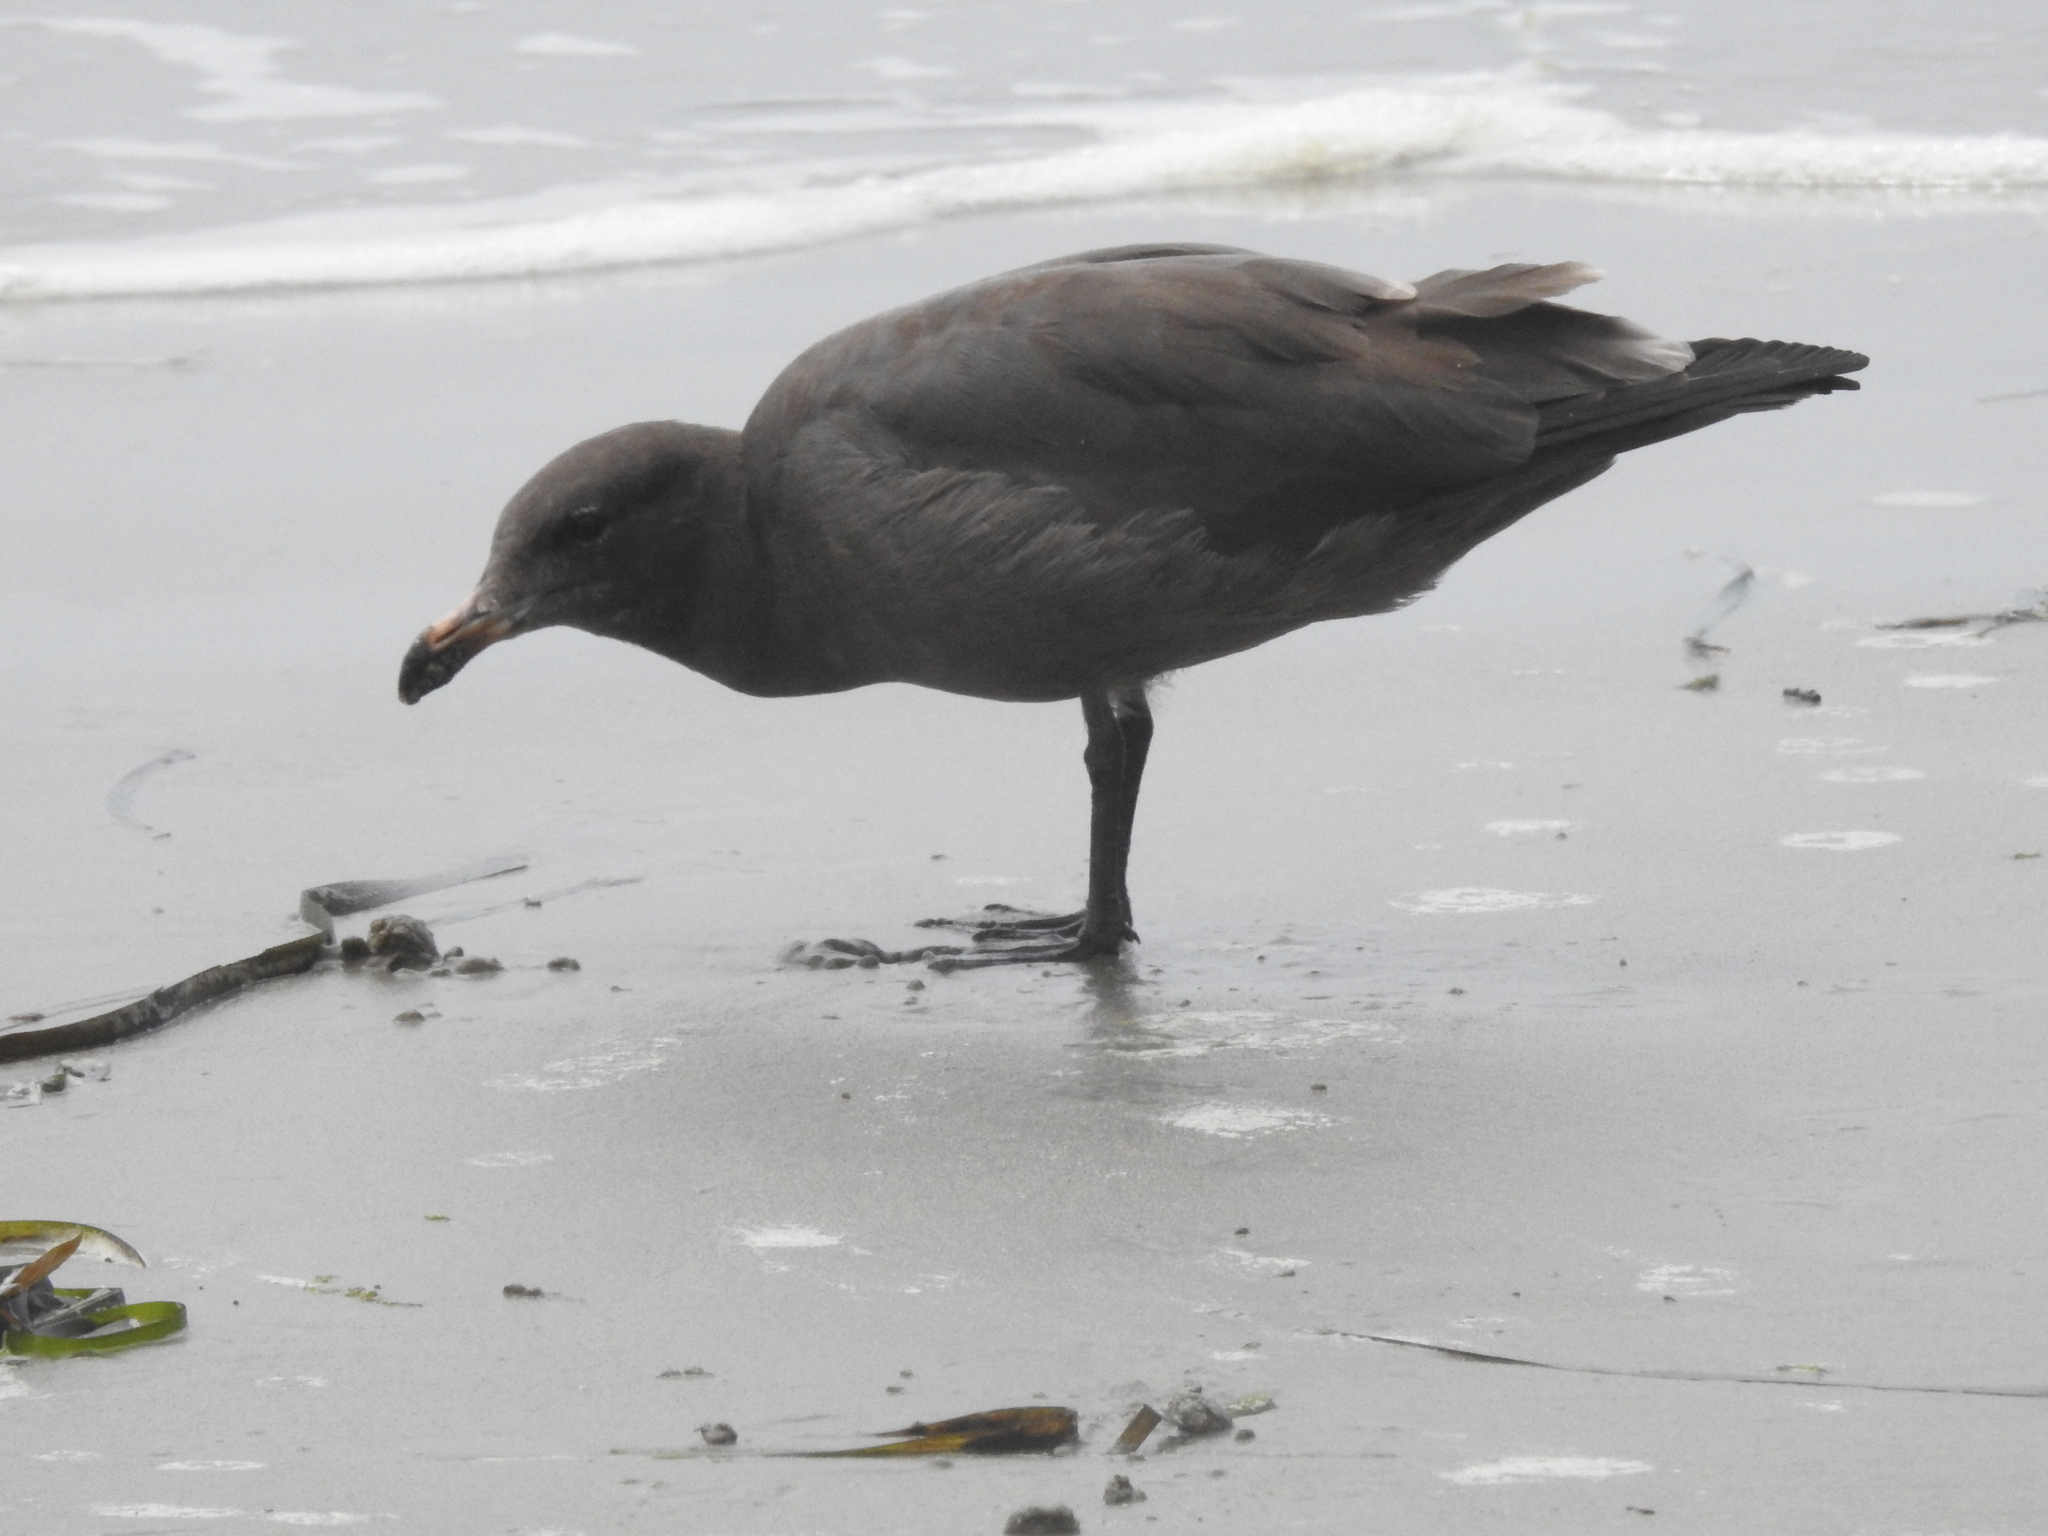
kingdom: Animalia
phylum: Chordata
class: Aves
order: Charadriiformes
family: Laridae
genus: Larus
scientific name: Larus heermanni
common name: Heermann's gull
